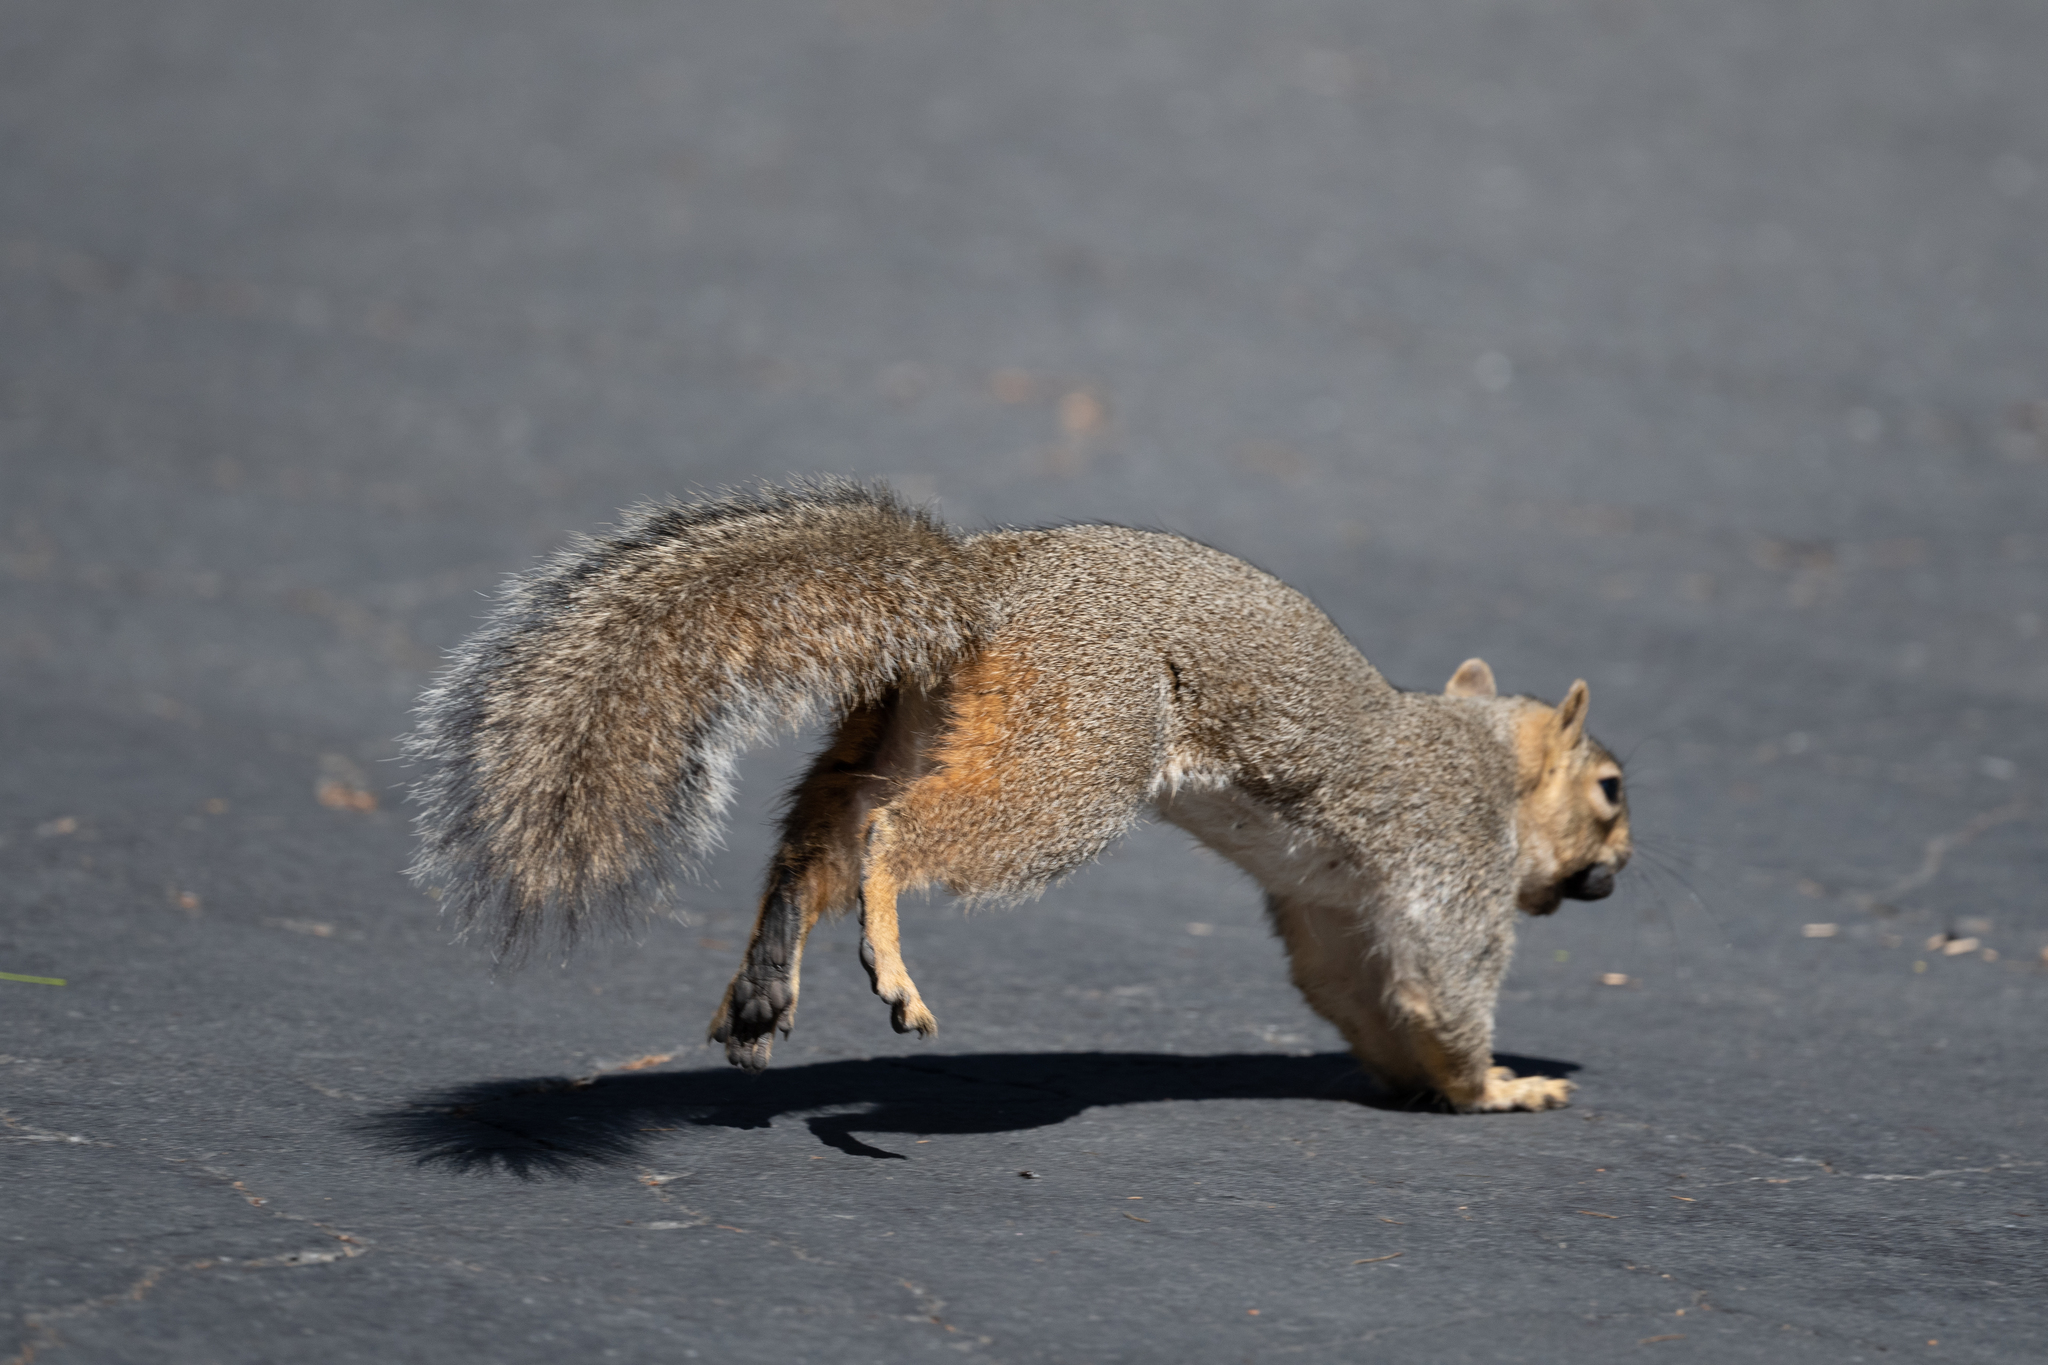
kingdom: Animalia
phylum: Chordata
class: Mammalia
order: Rodentia
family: Sciuridae
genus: Sciurus
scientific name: Sciurus niger
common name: Fox squirrel
